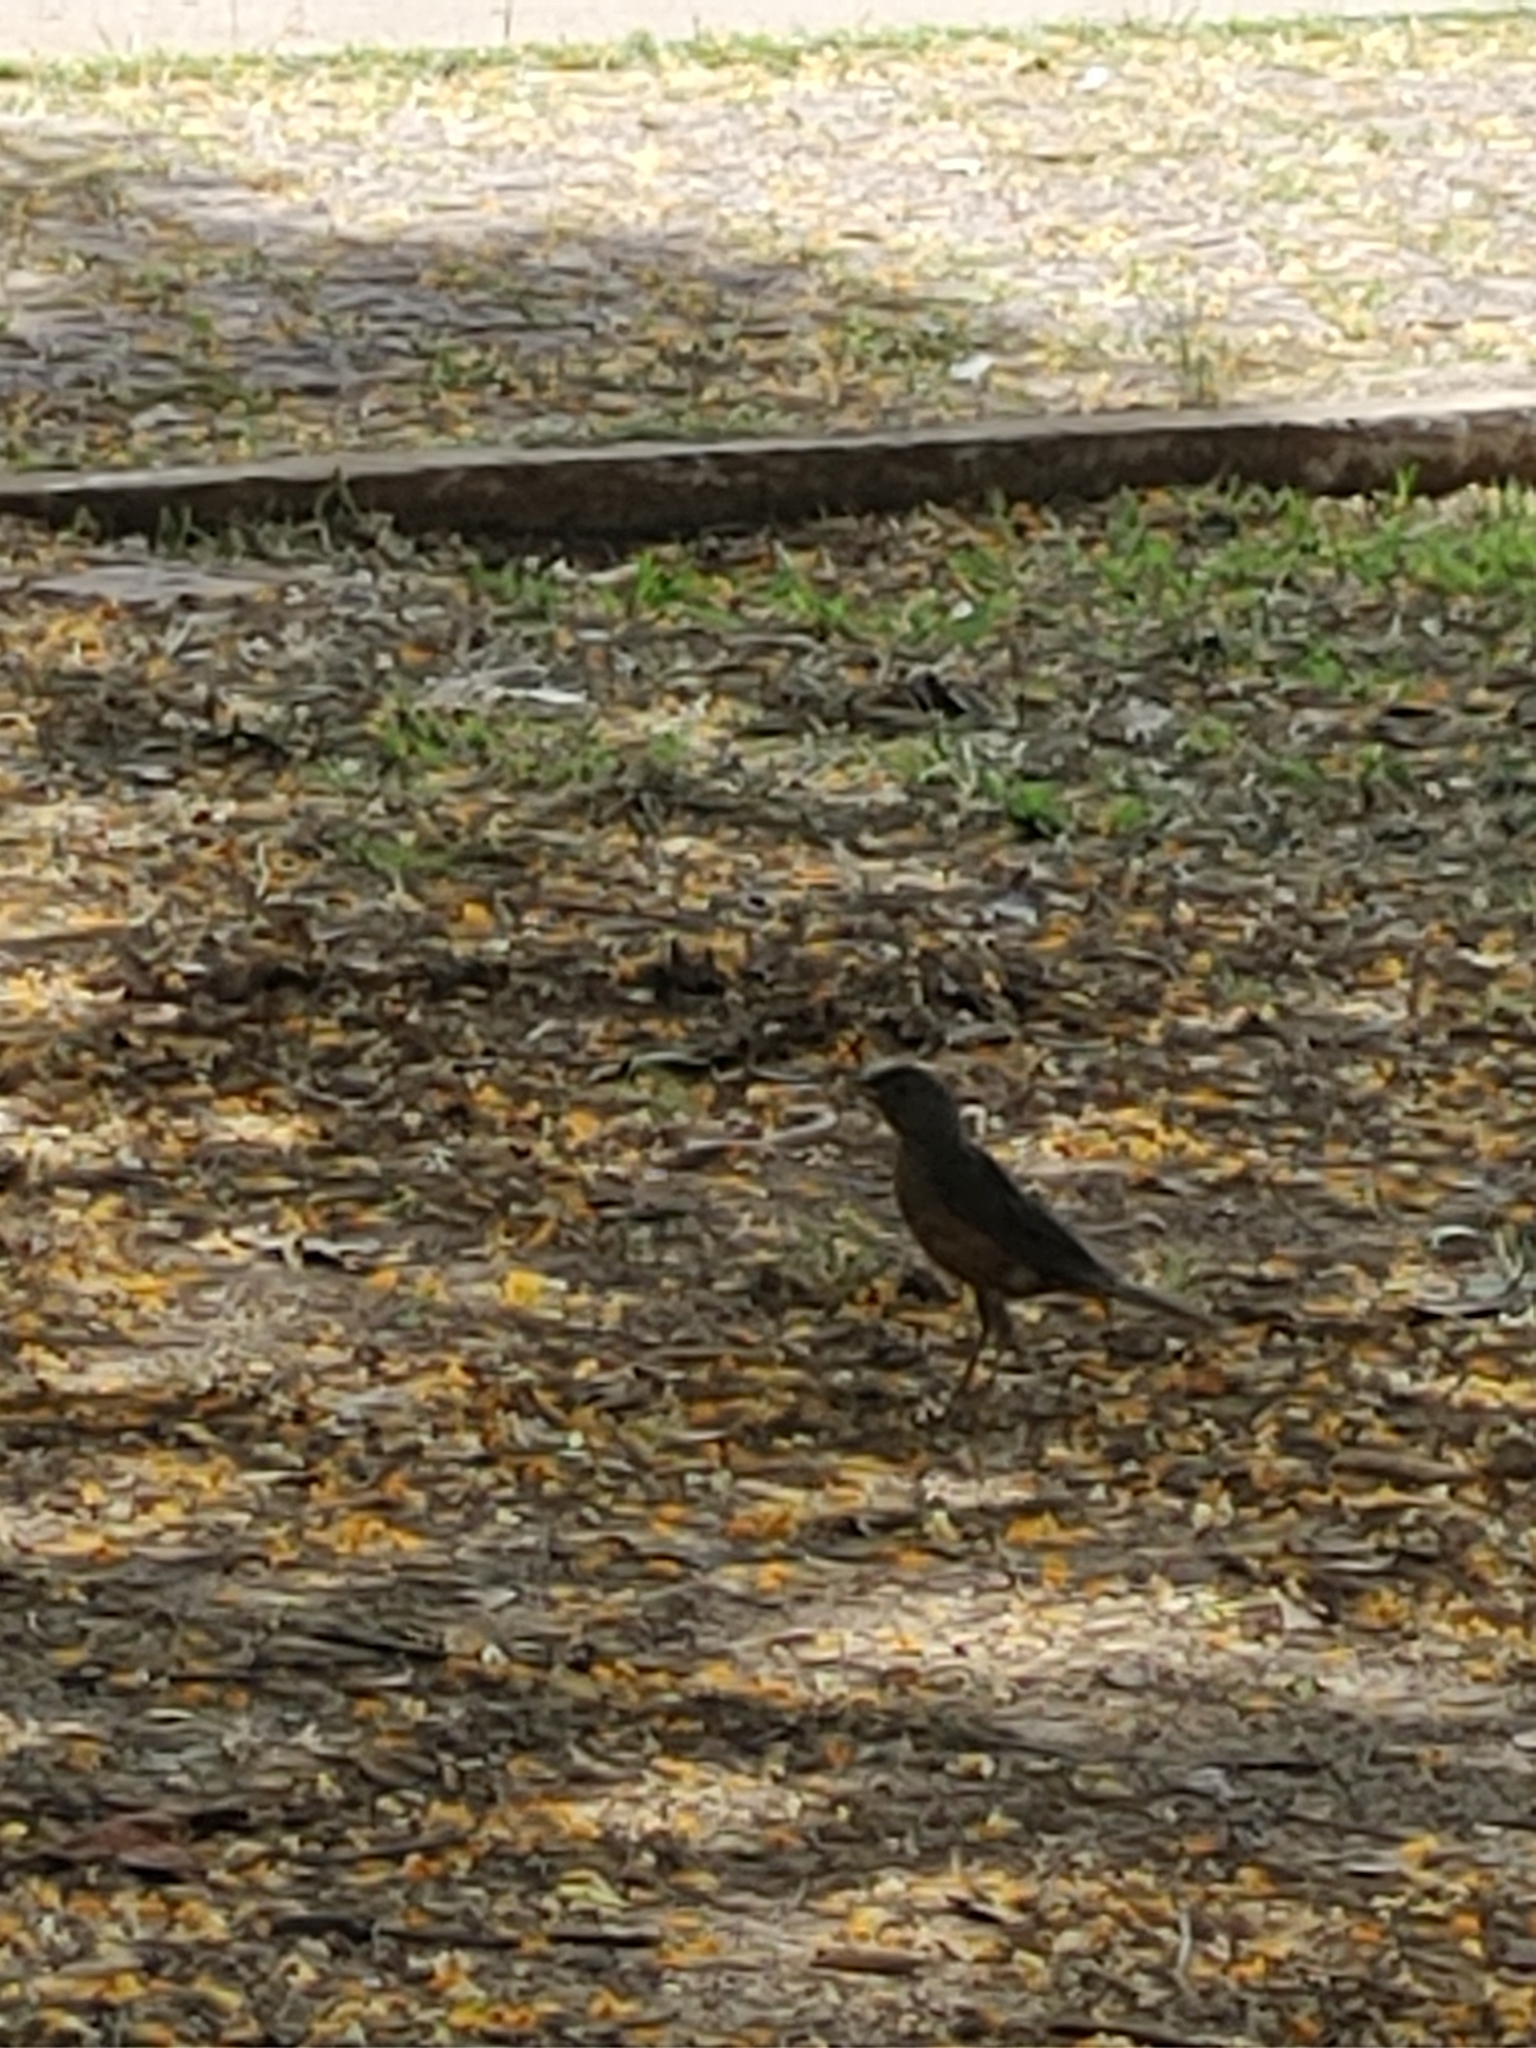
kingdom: Animalia
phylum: Chordata
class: Aves
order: Passeriformes
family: Turdidae
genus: Turdus
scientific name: Turdus rufiventris
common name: Rufous-bellied thrush
